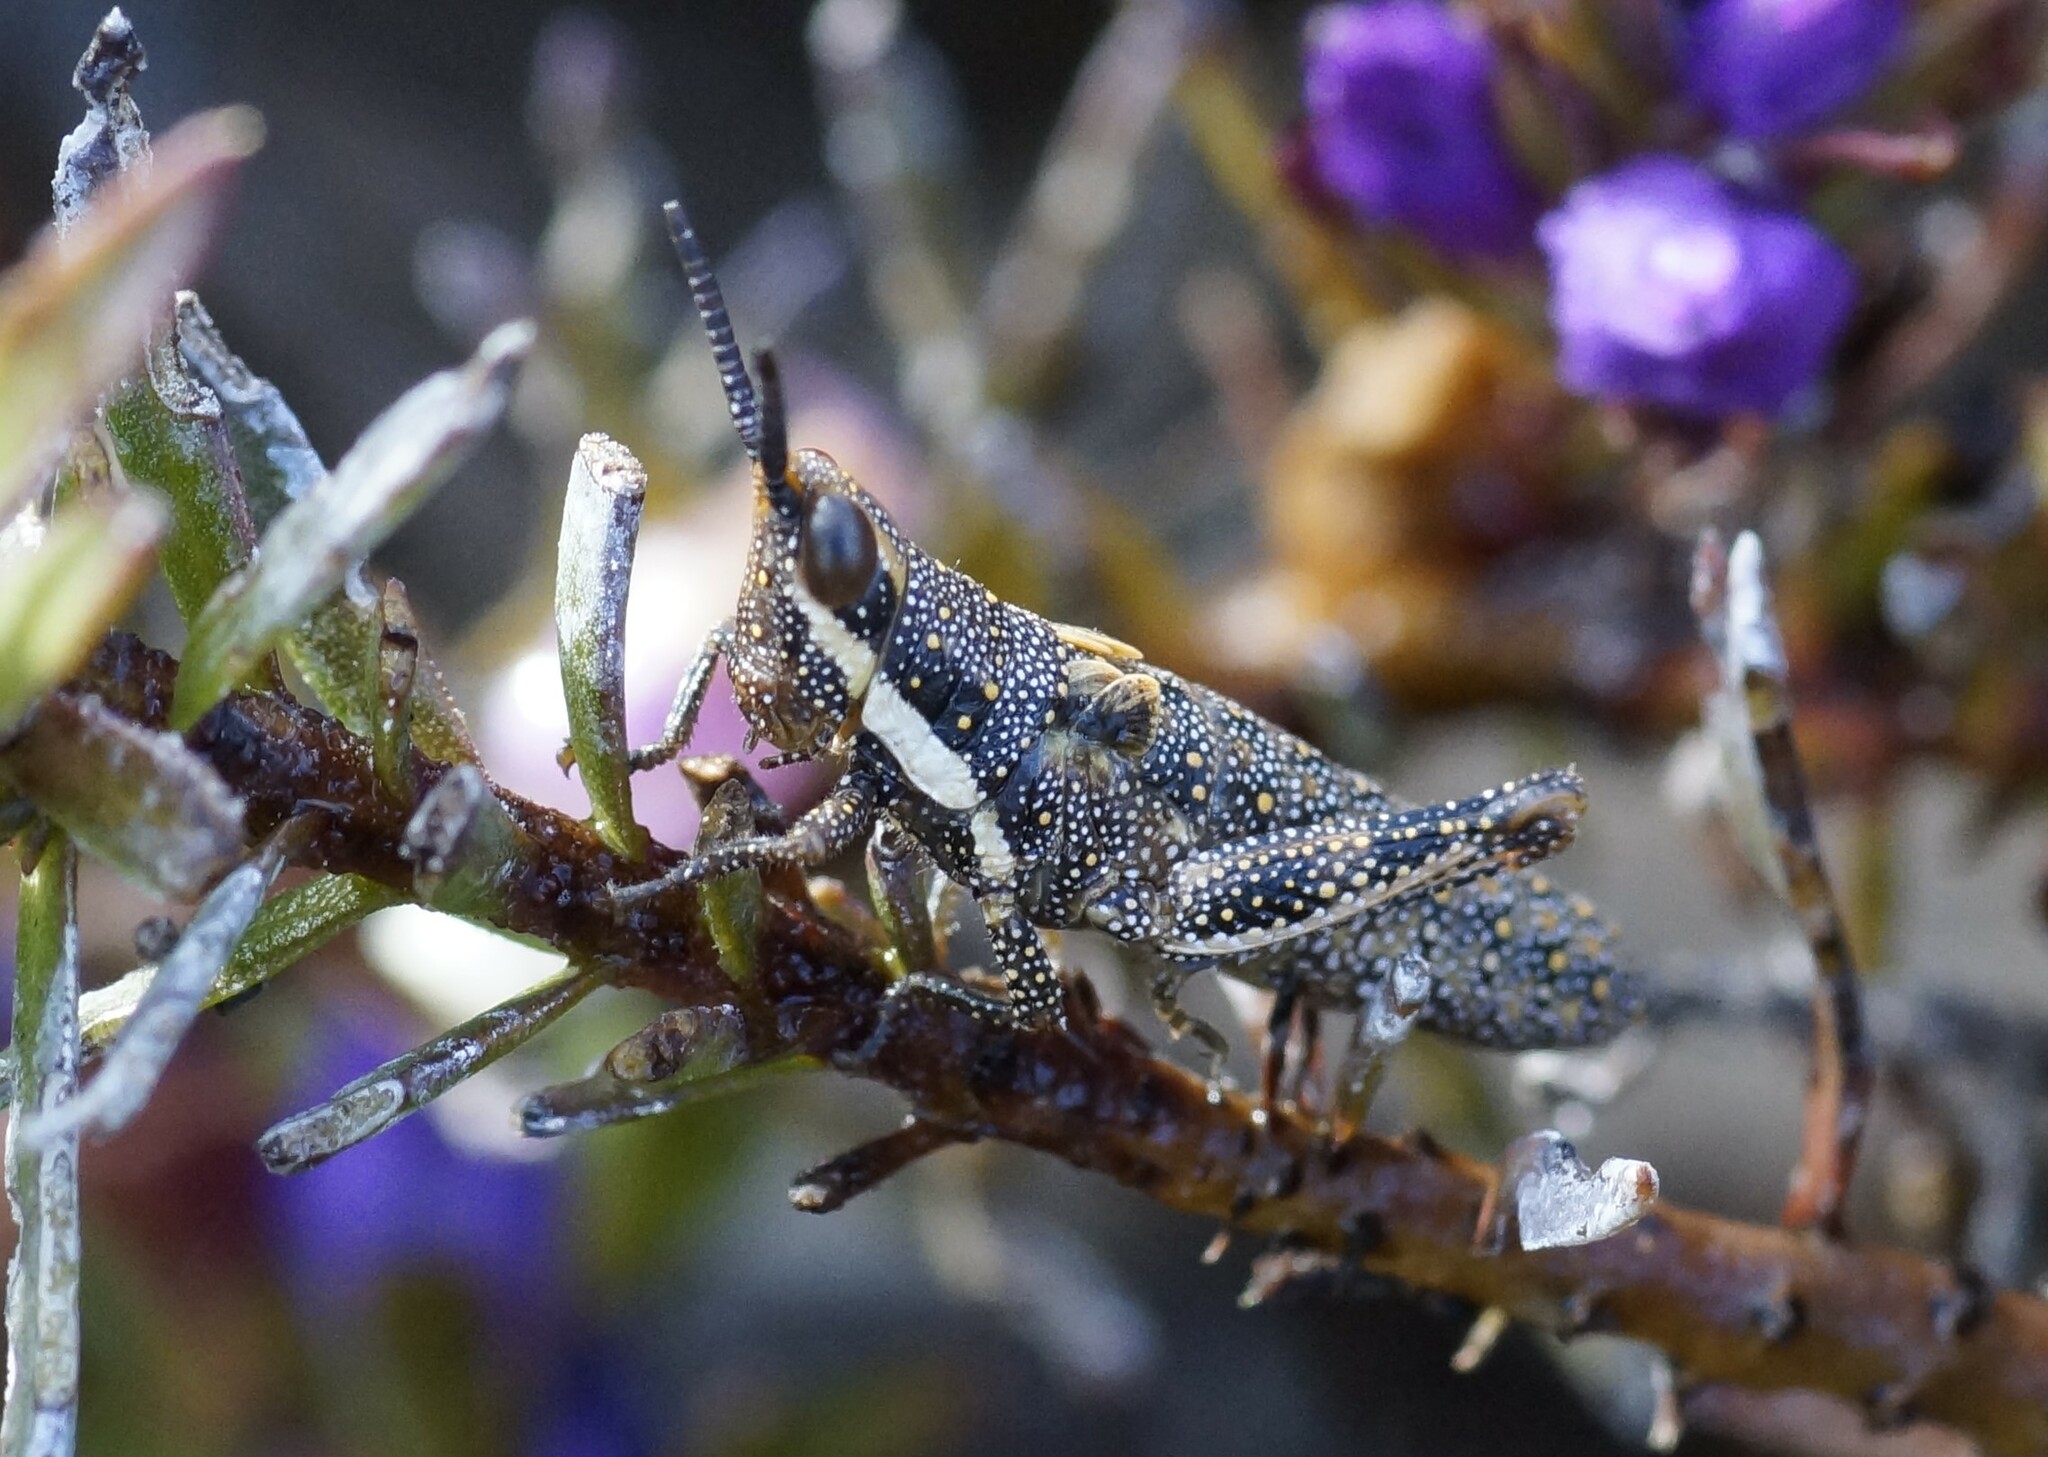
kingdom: Animalia
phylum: Arthropoda
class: Insecta
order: Orthoptera
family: Pyrgomorphidae
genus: Monistria
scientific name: Monistria pustulifera
